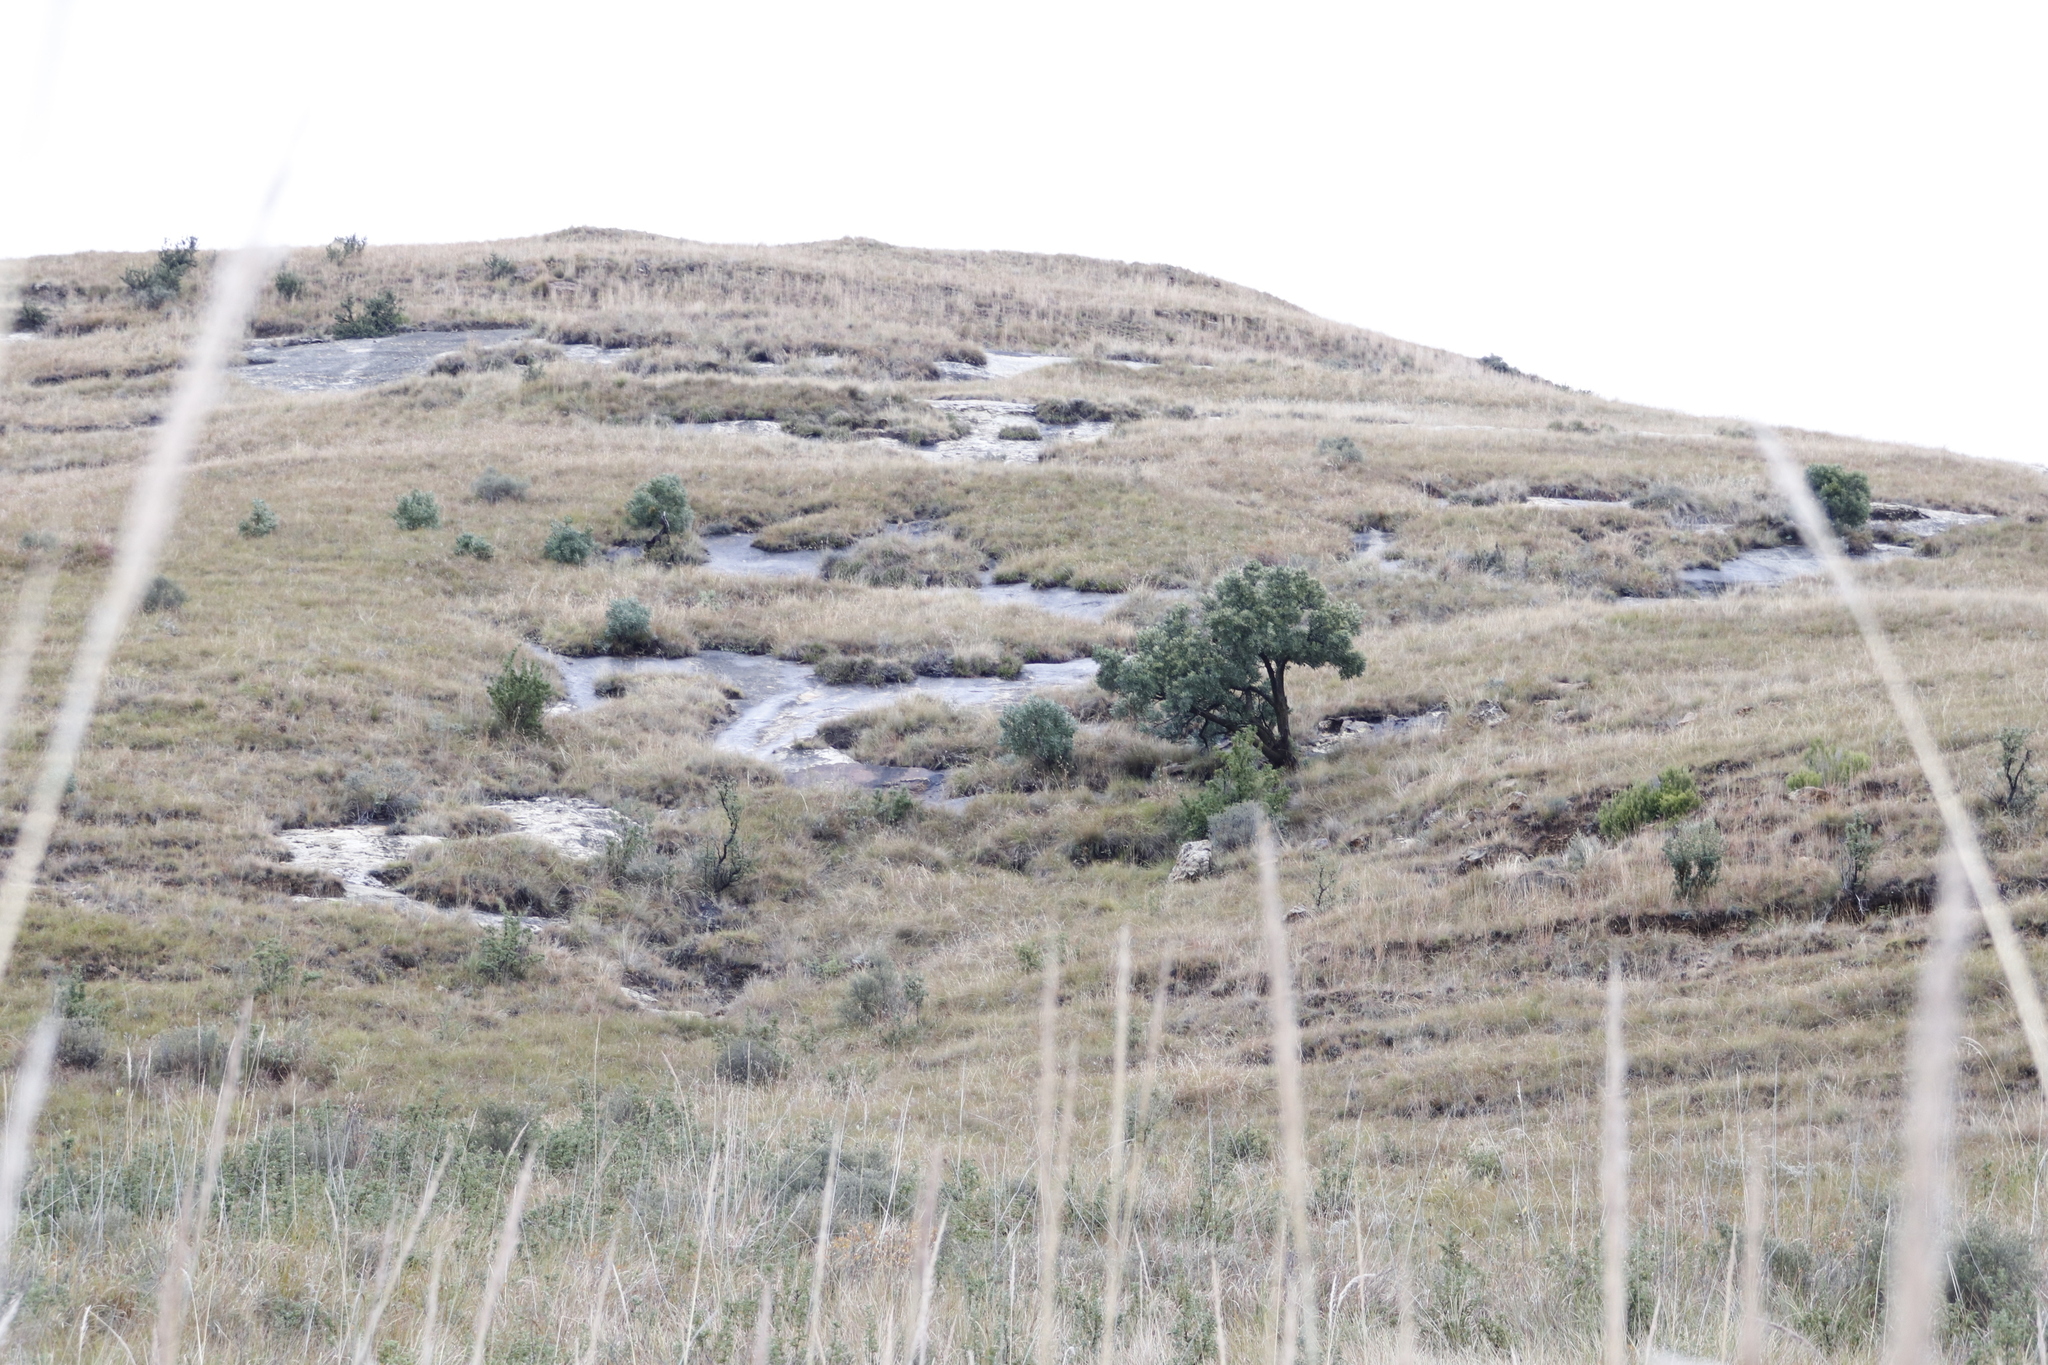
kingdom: Plantae
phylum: Tracheophyta
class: Magnoliopsida
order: Proteales
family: Proteaceae
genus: Protea
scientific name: Protea caffra
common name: Common sugarbush
